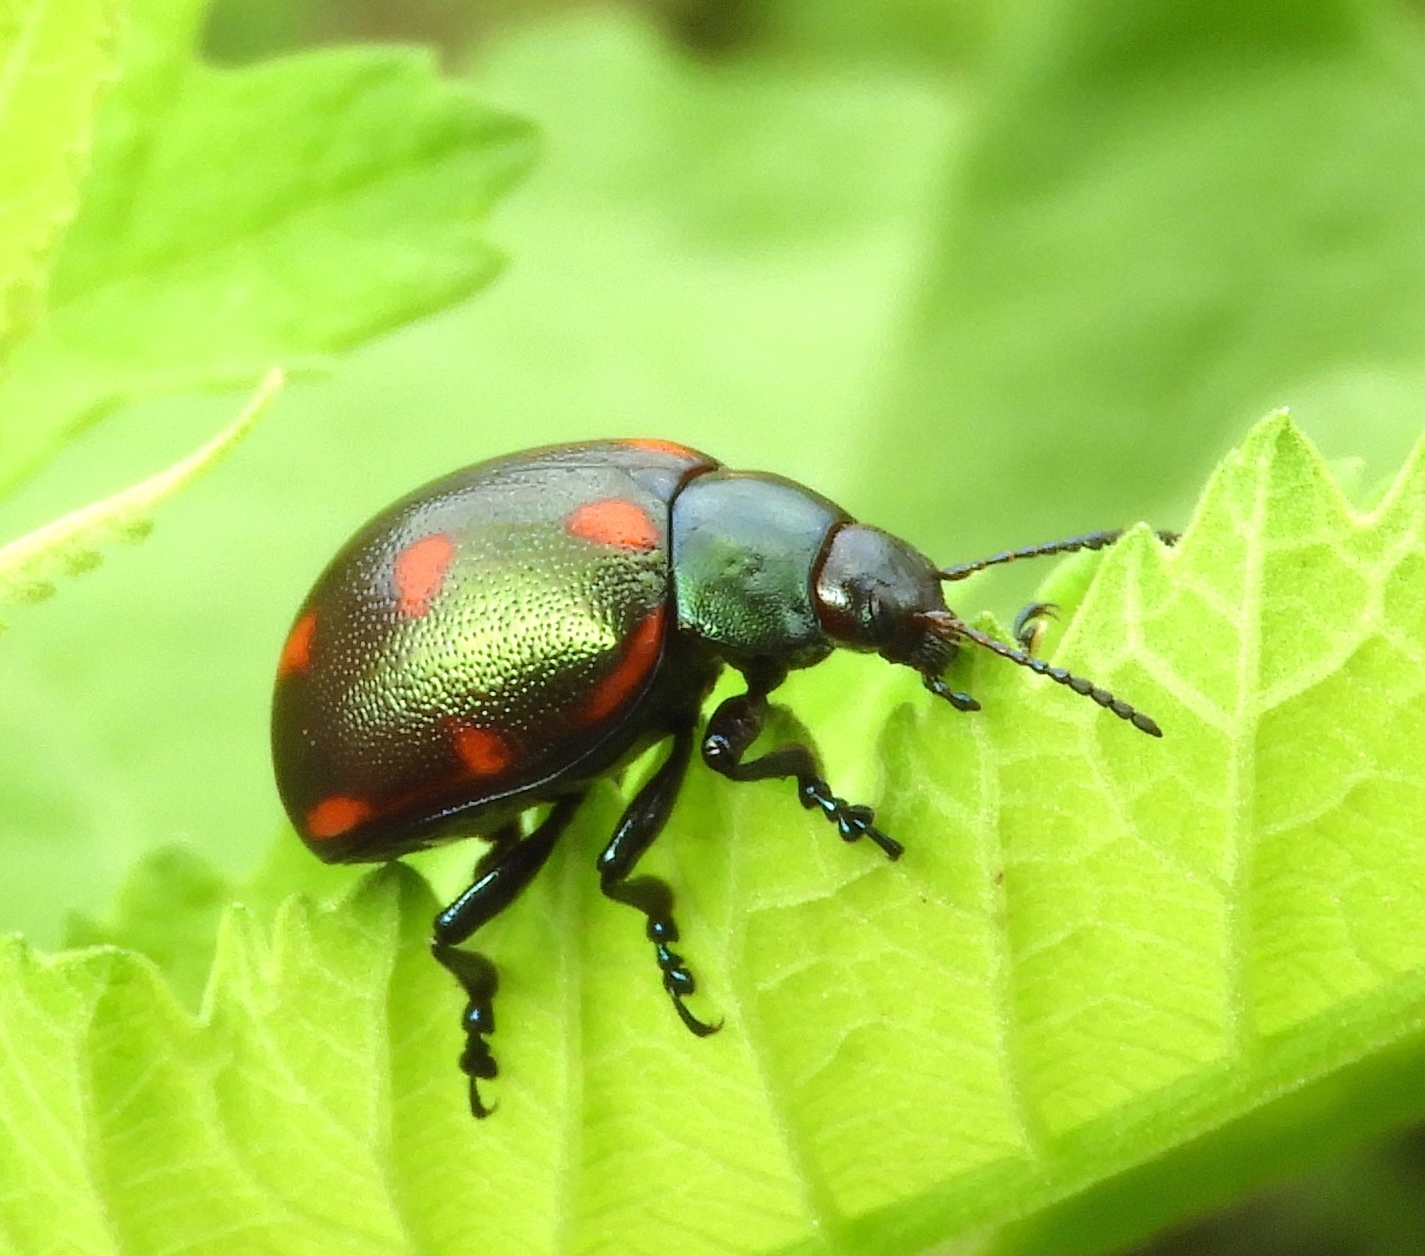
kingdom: Animalia
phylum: Arthropoda
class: Insecta
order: Coleoptera
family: Chrysomelidae
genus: Leptinotarsa
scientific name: Leptinotarsa behrensi
